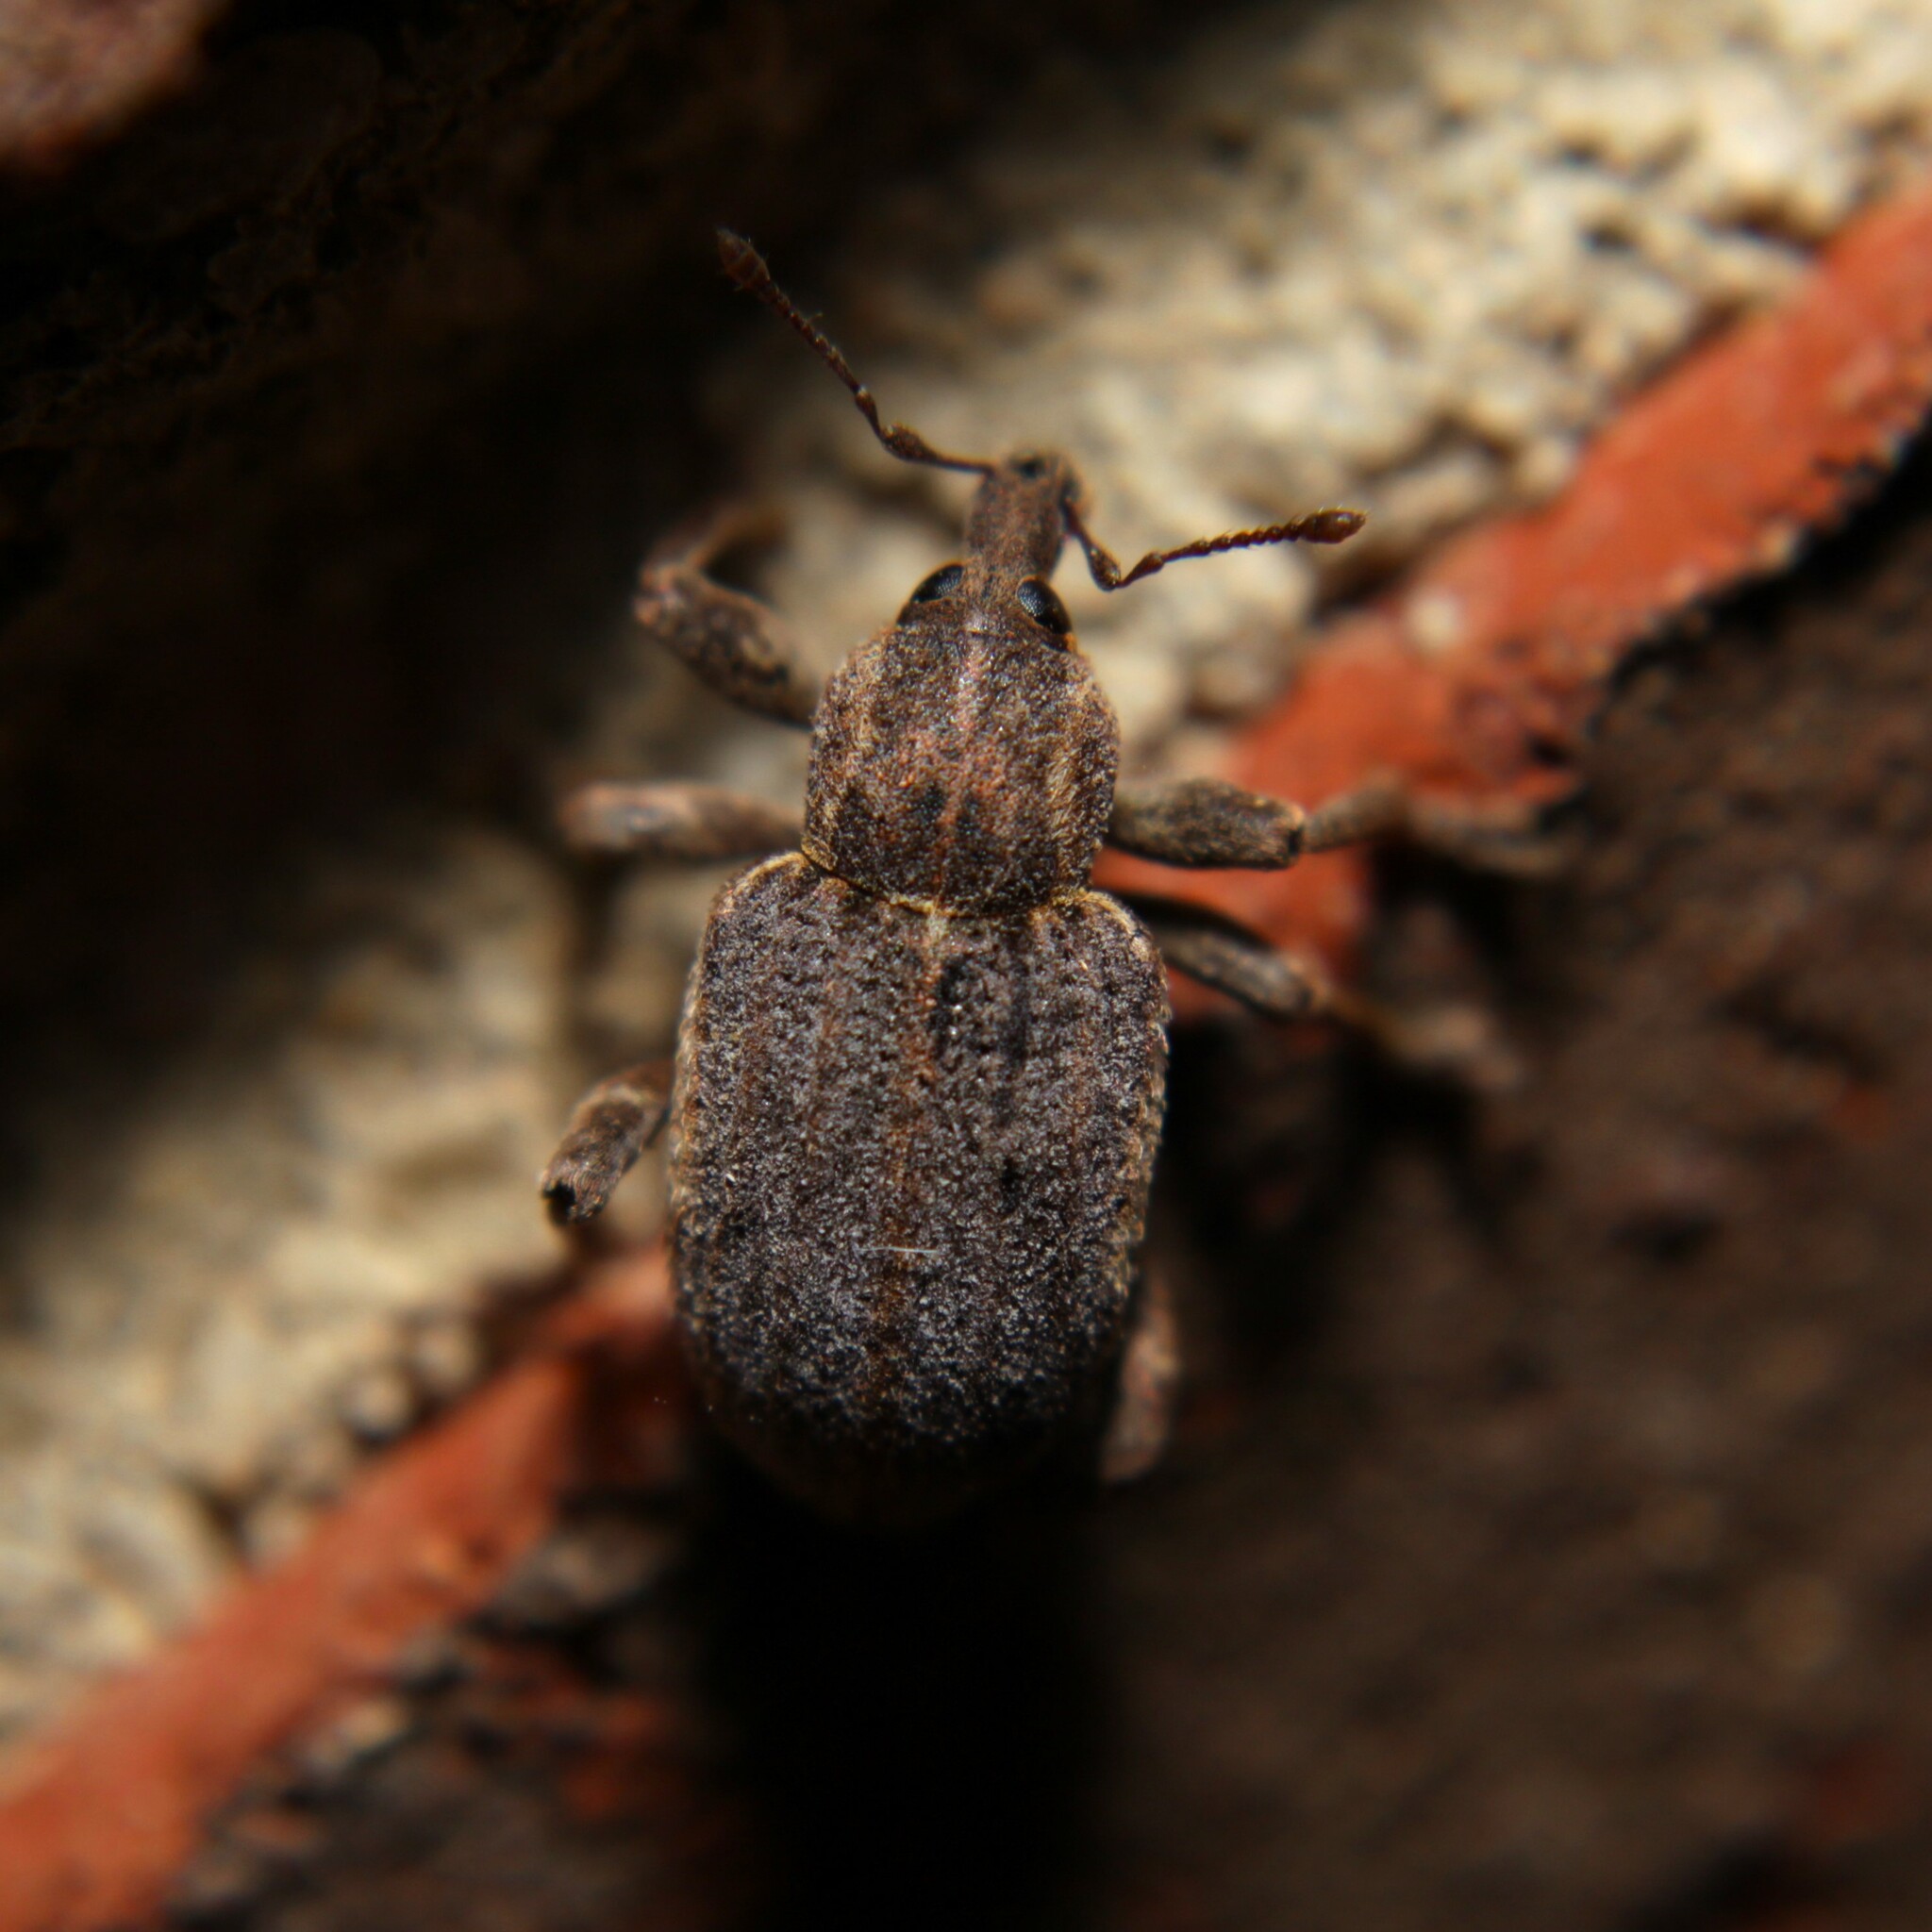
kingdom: Animalia
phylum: Arthropoda
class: Insecta
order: Coleoptera
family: Curculionidae
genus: Brachypera
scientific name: Brachypera zoilus
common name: Clover leaf weevil
